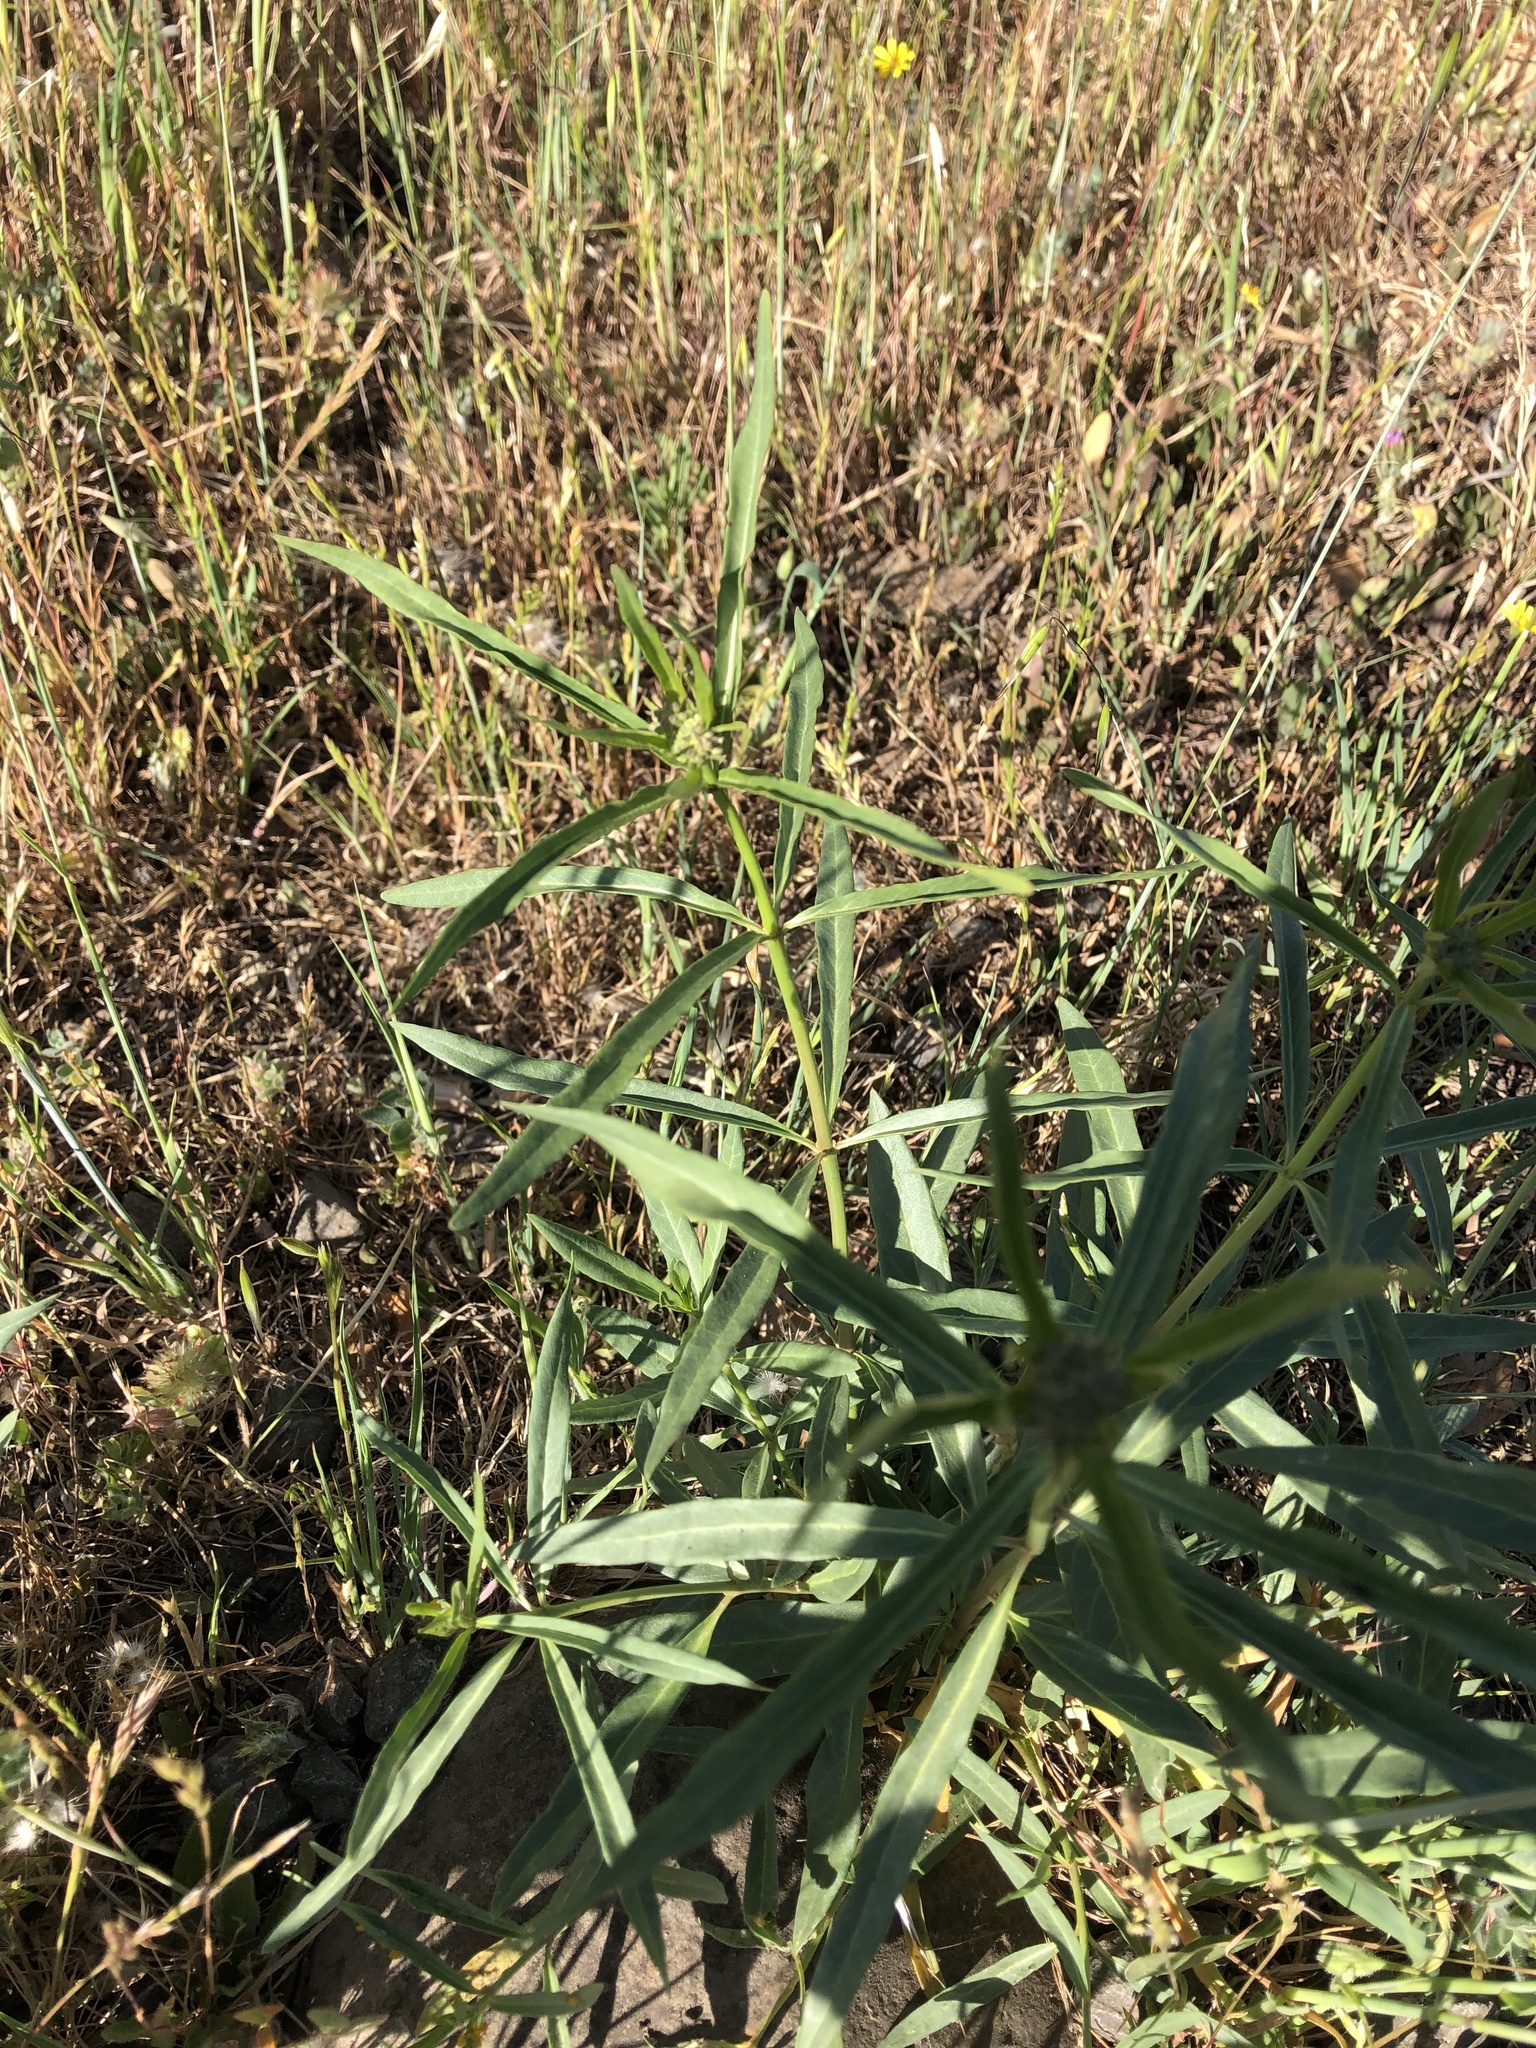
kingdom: Plantae
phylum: Tracheophyta
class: Magnoliopsida
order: Gentianales
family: Apocynaceae
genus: Asclepias
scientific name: Asclepias fascicularis
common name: Mexican milkweed
